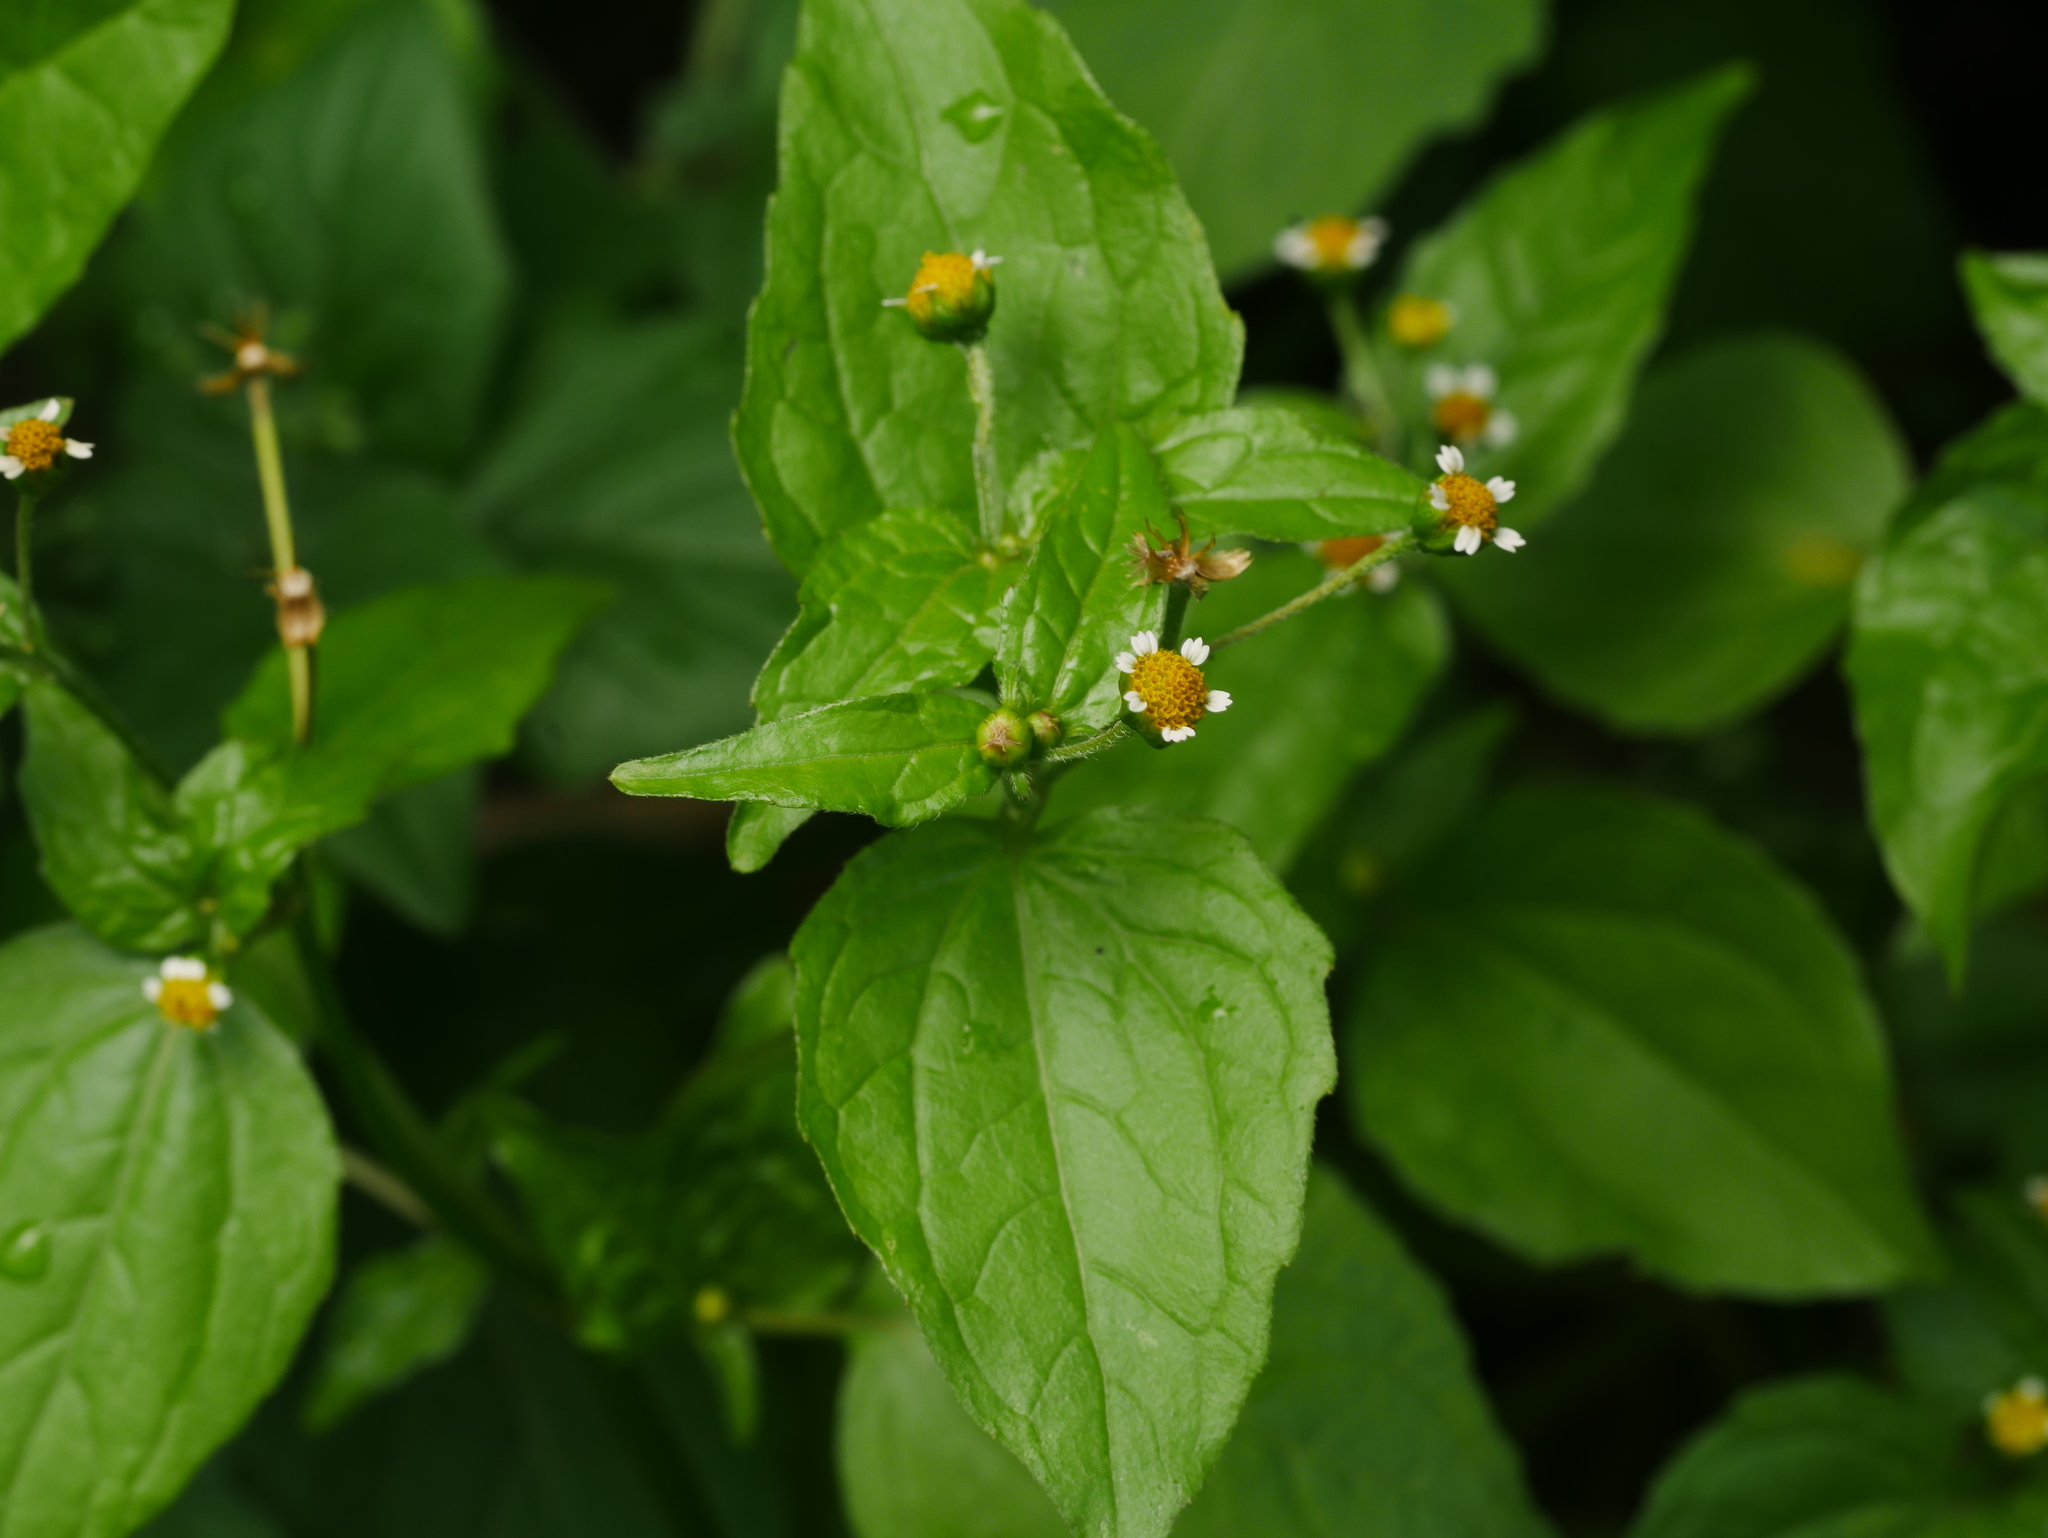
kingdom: Plantae
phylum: Tracheophyta
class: Magnoliopsida
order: Asterales
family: Asteraceae
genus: Galinsoga
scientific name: Galinsoga parviflora
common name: Gallant soldier
